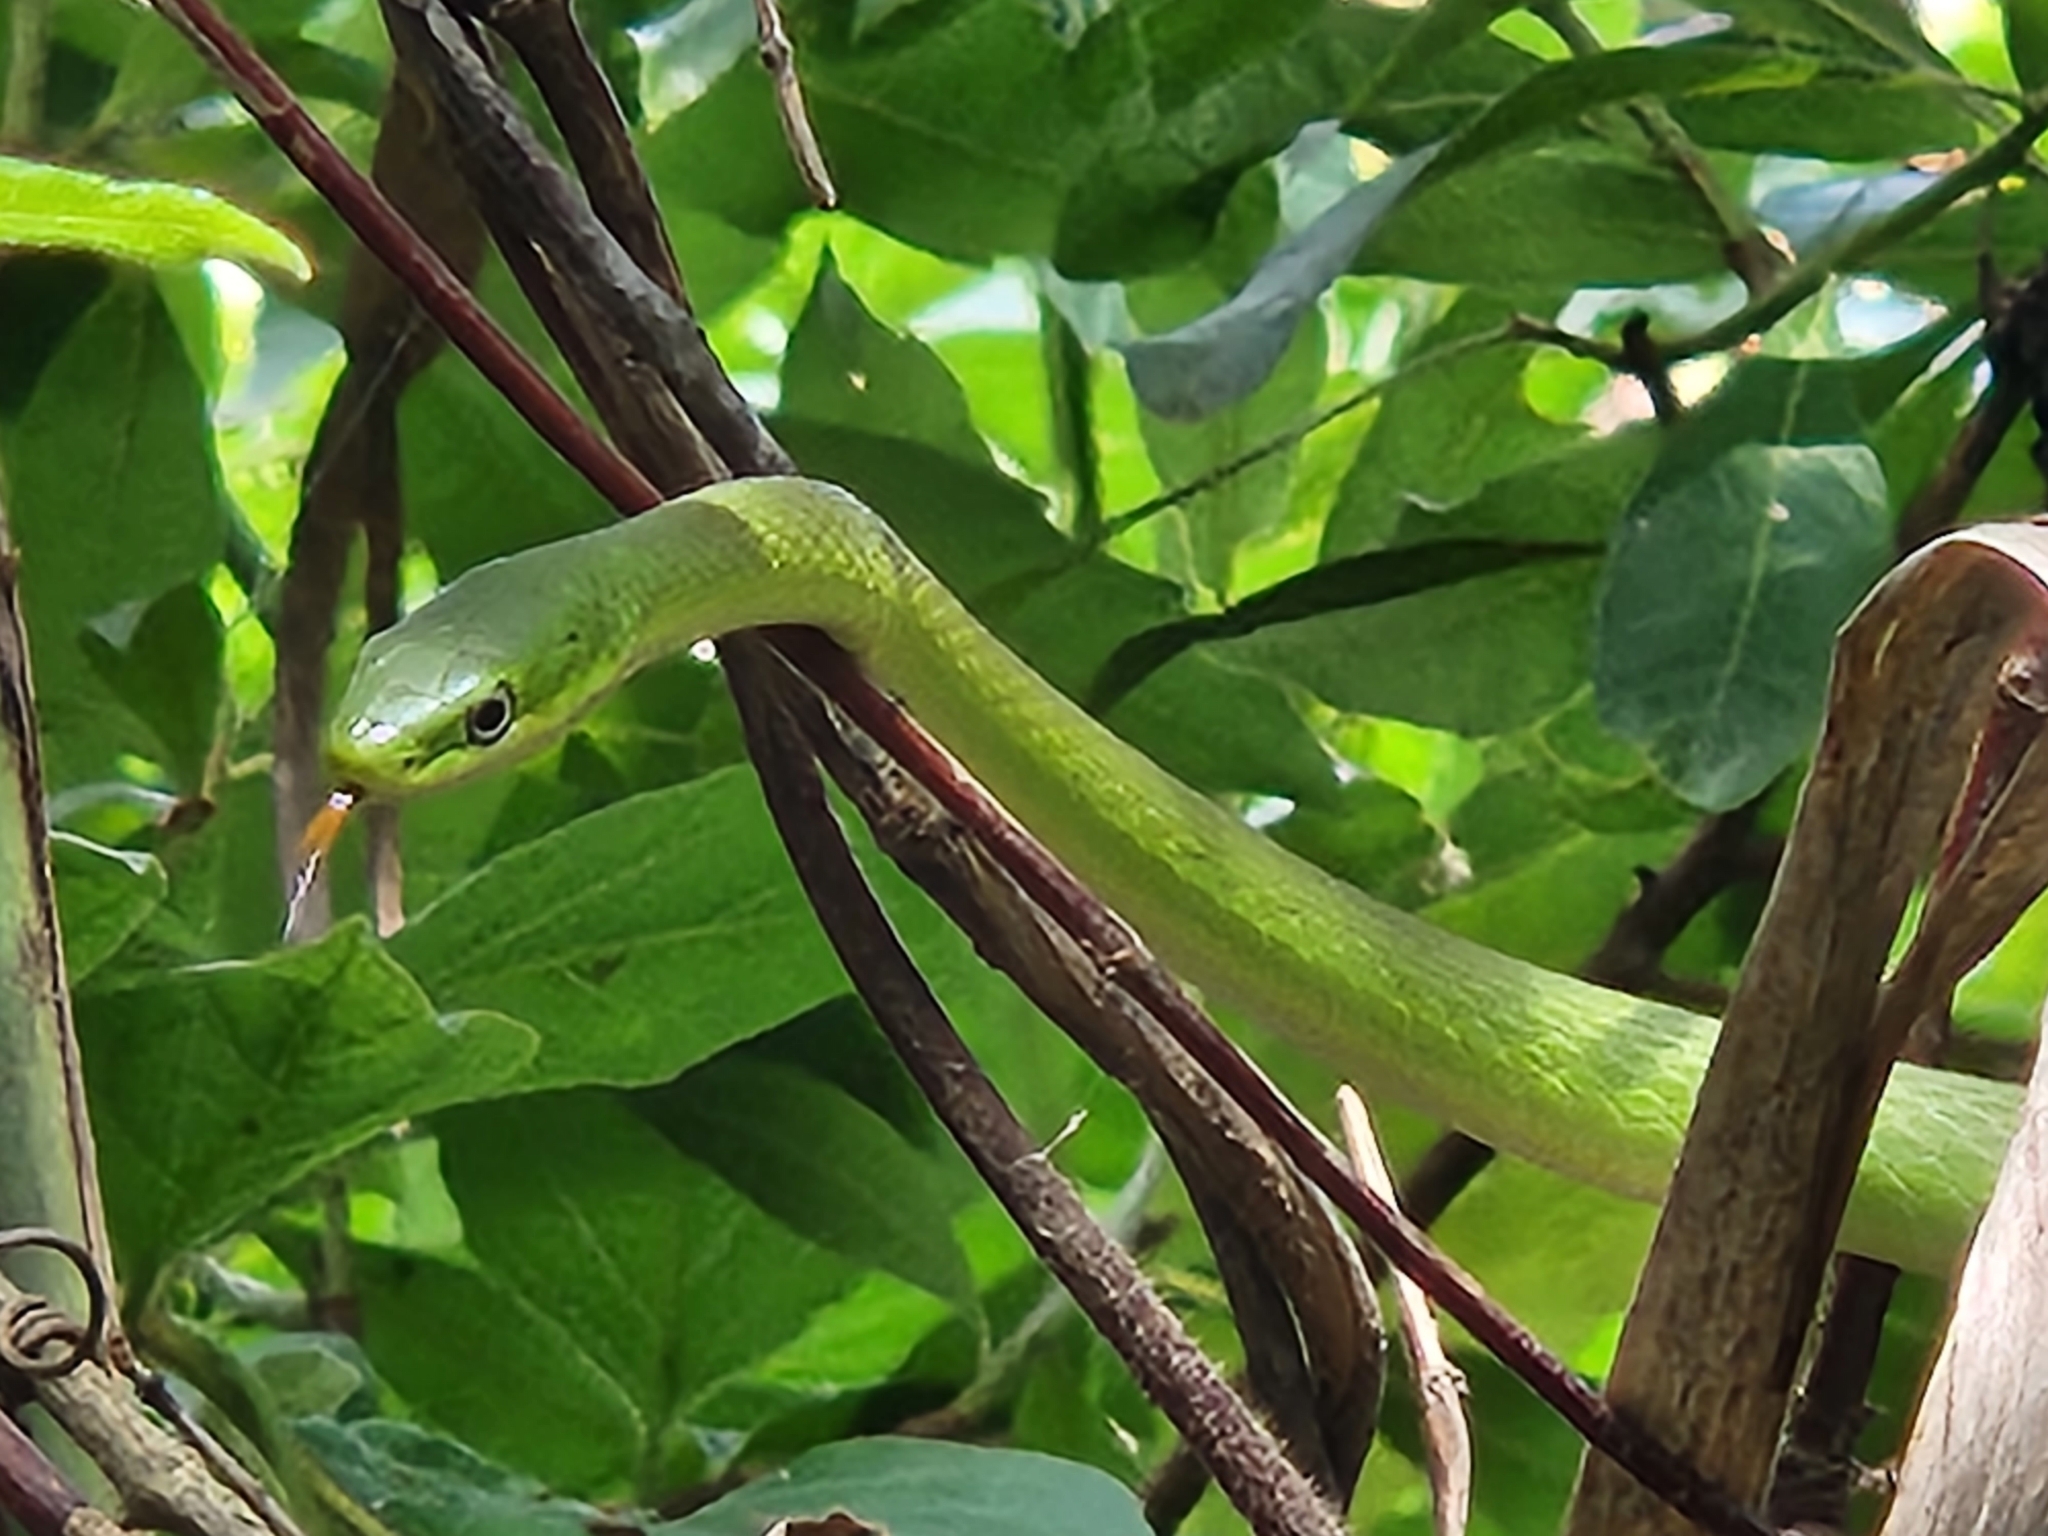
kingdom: Animalia
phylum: Chordata
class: Squamata
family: Colubridae
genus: Opheodrys
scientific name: Opheodrys aestivus
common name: Rough greensnake
